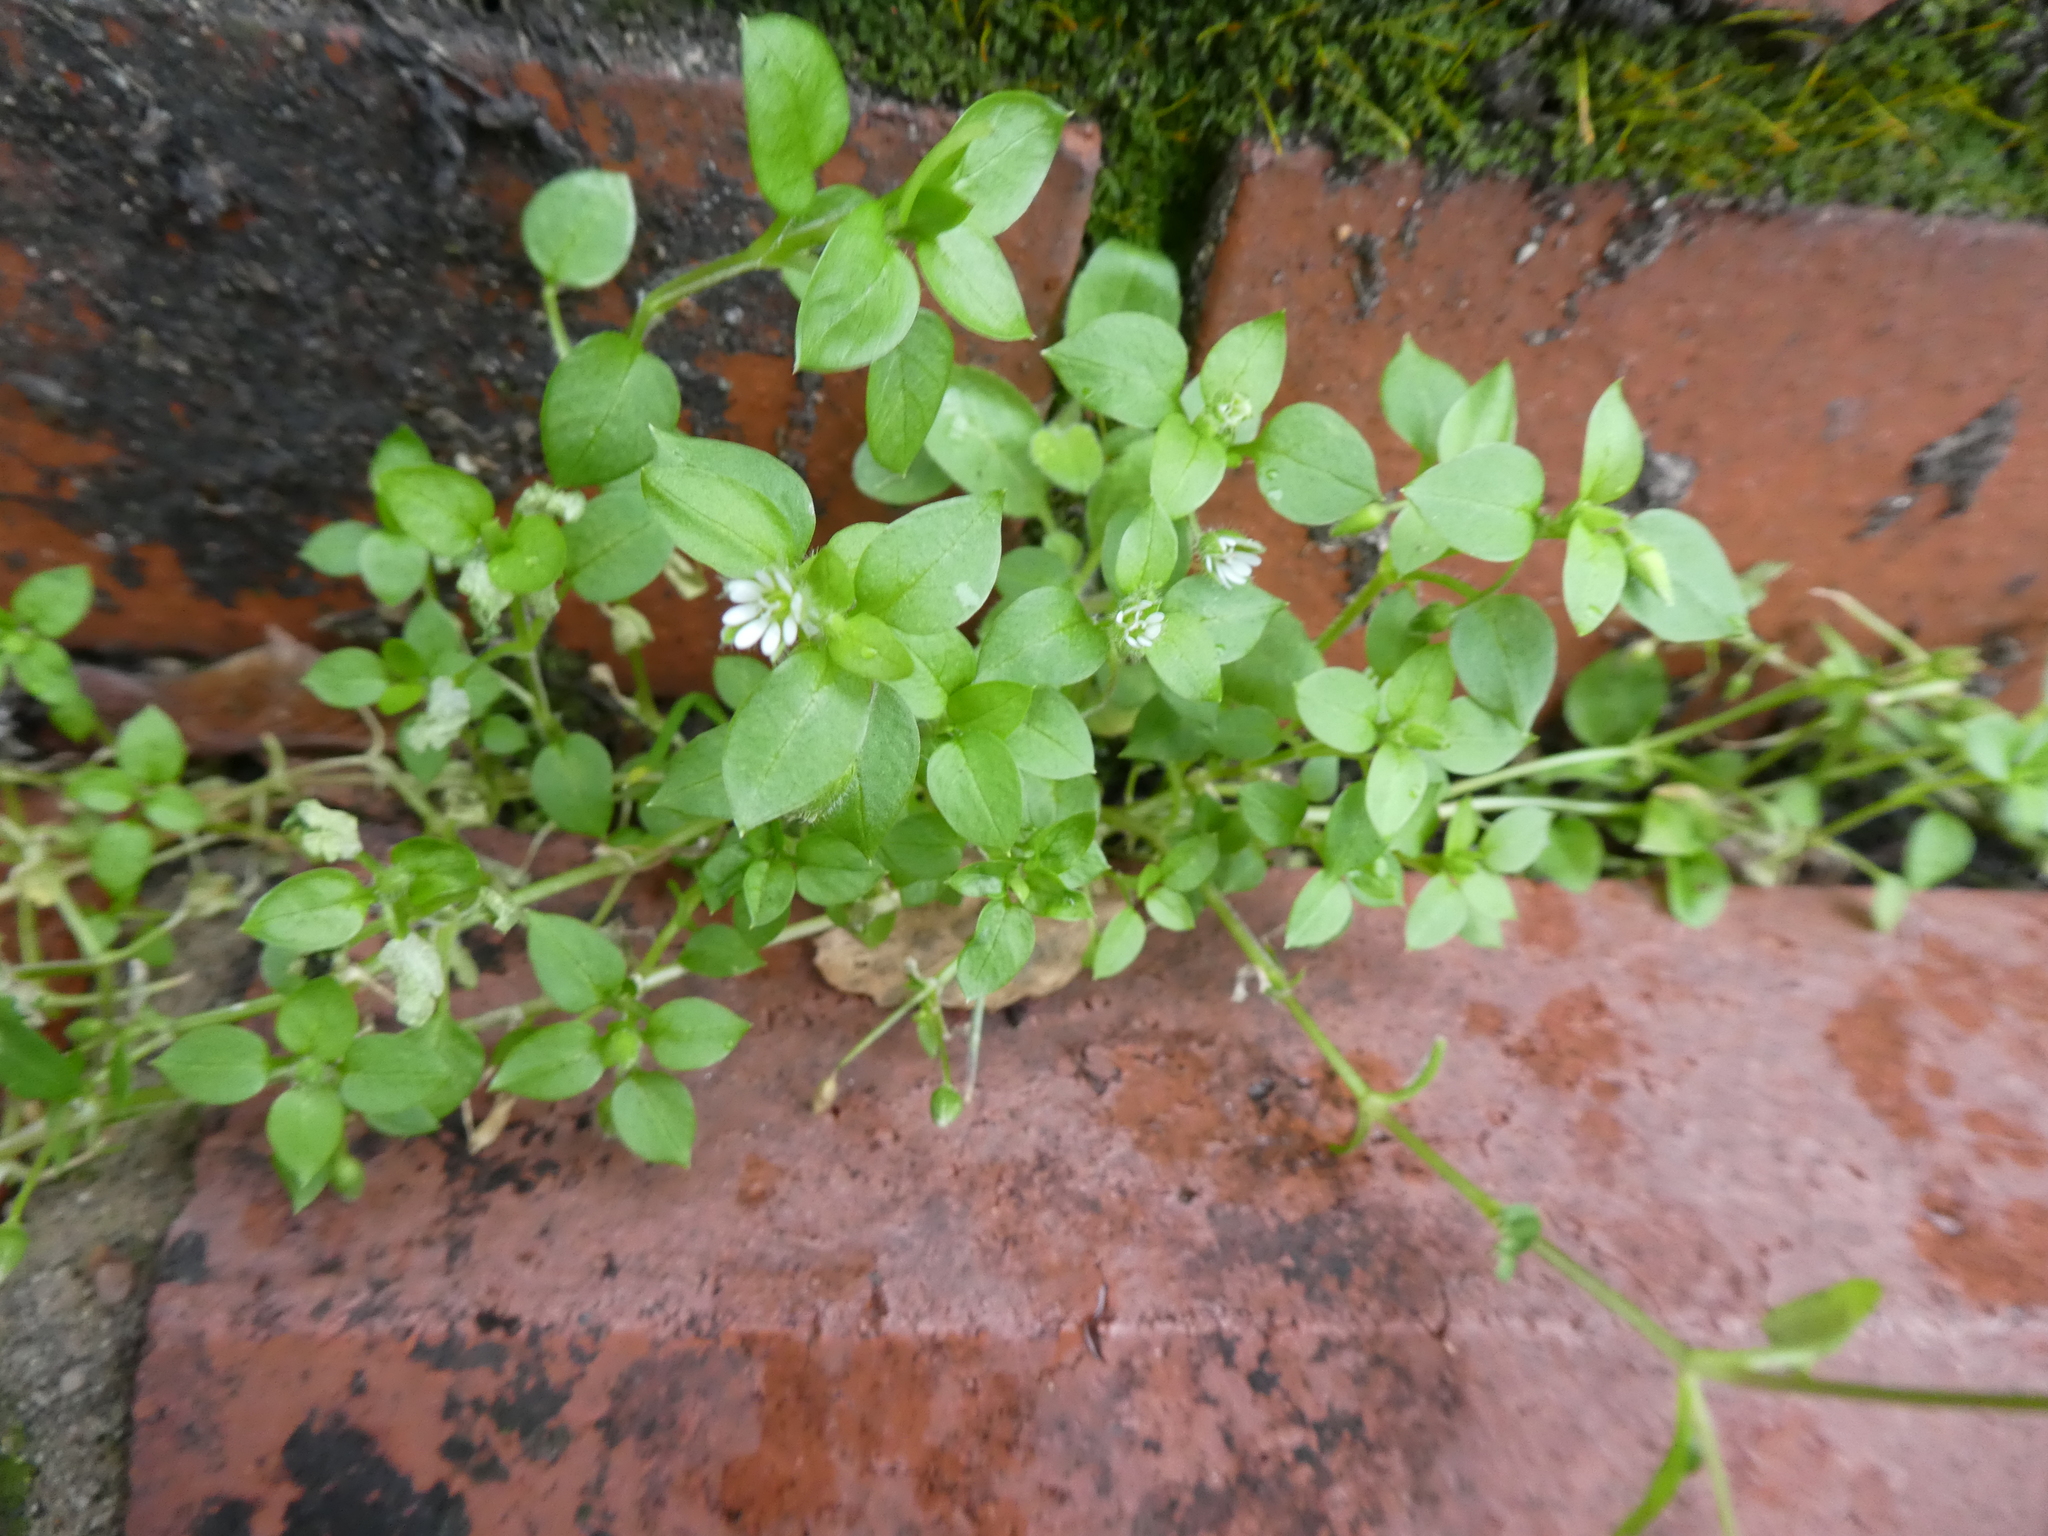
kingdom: Plantae
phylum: Tracheophyta
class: Magnoliopsida
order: Caryophyllales
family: Caryophyllaceae
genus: Stellaria
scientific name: Stellaria media
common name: Common chickweed
